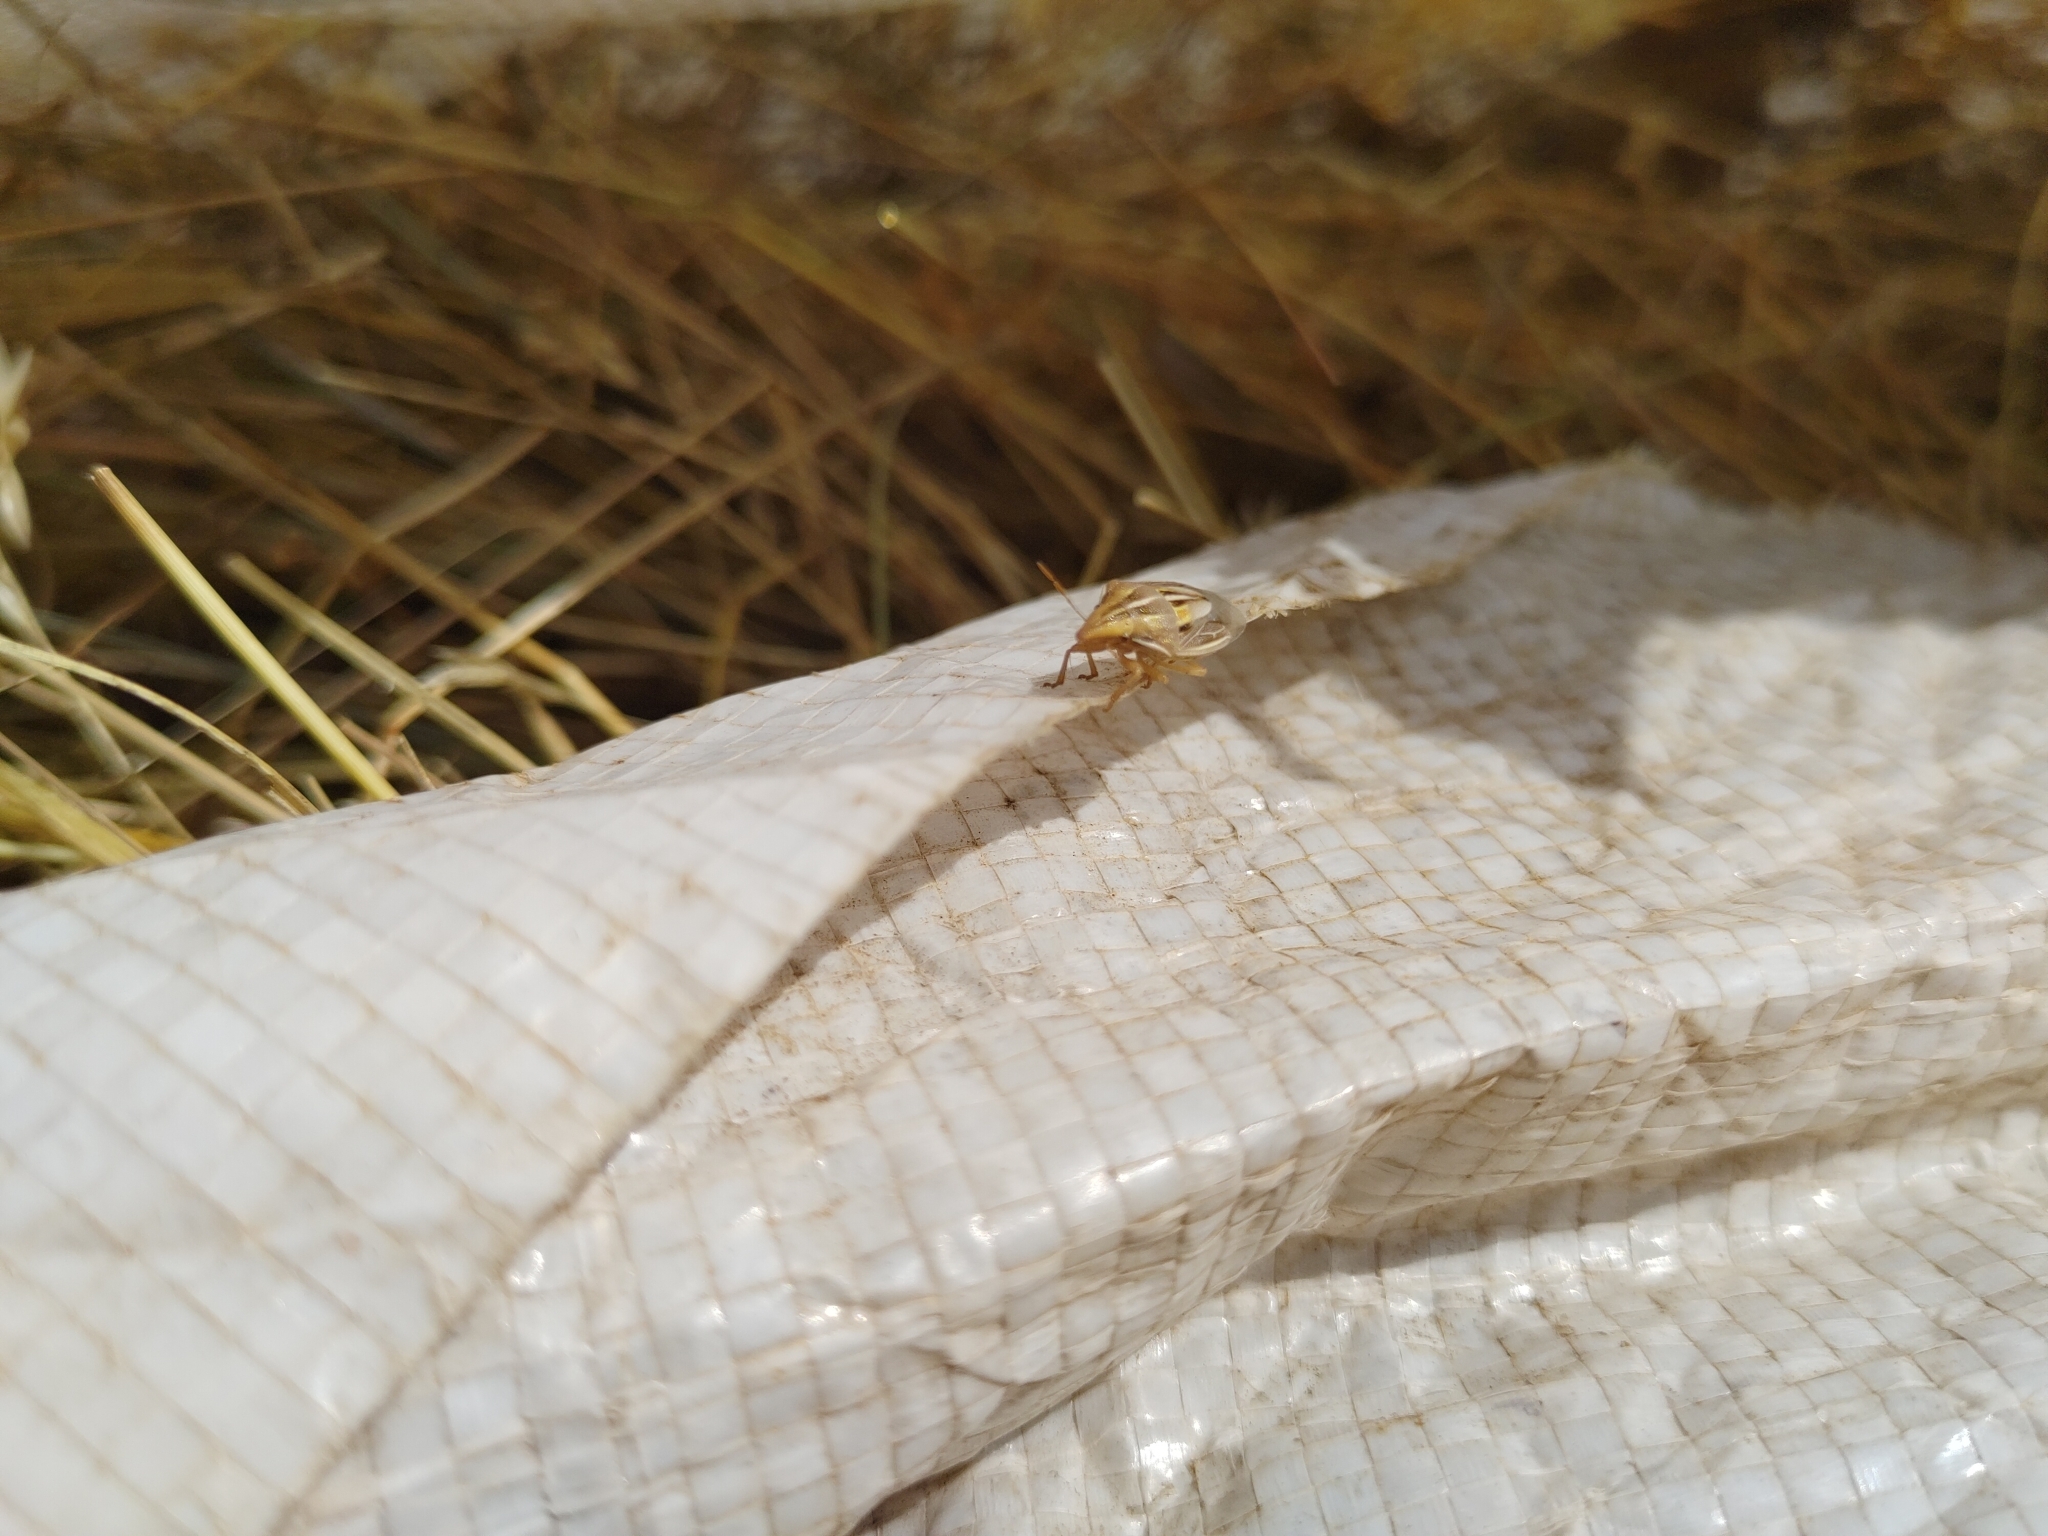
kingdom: Animalia
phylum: Arthropoda
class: Insecta
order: Hemiptera
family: Pentatomidae
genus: Aelia
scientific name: Aelia rostrata
